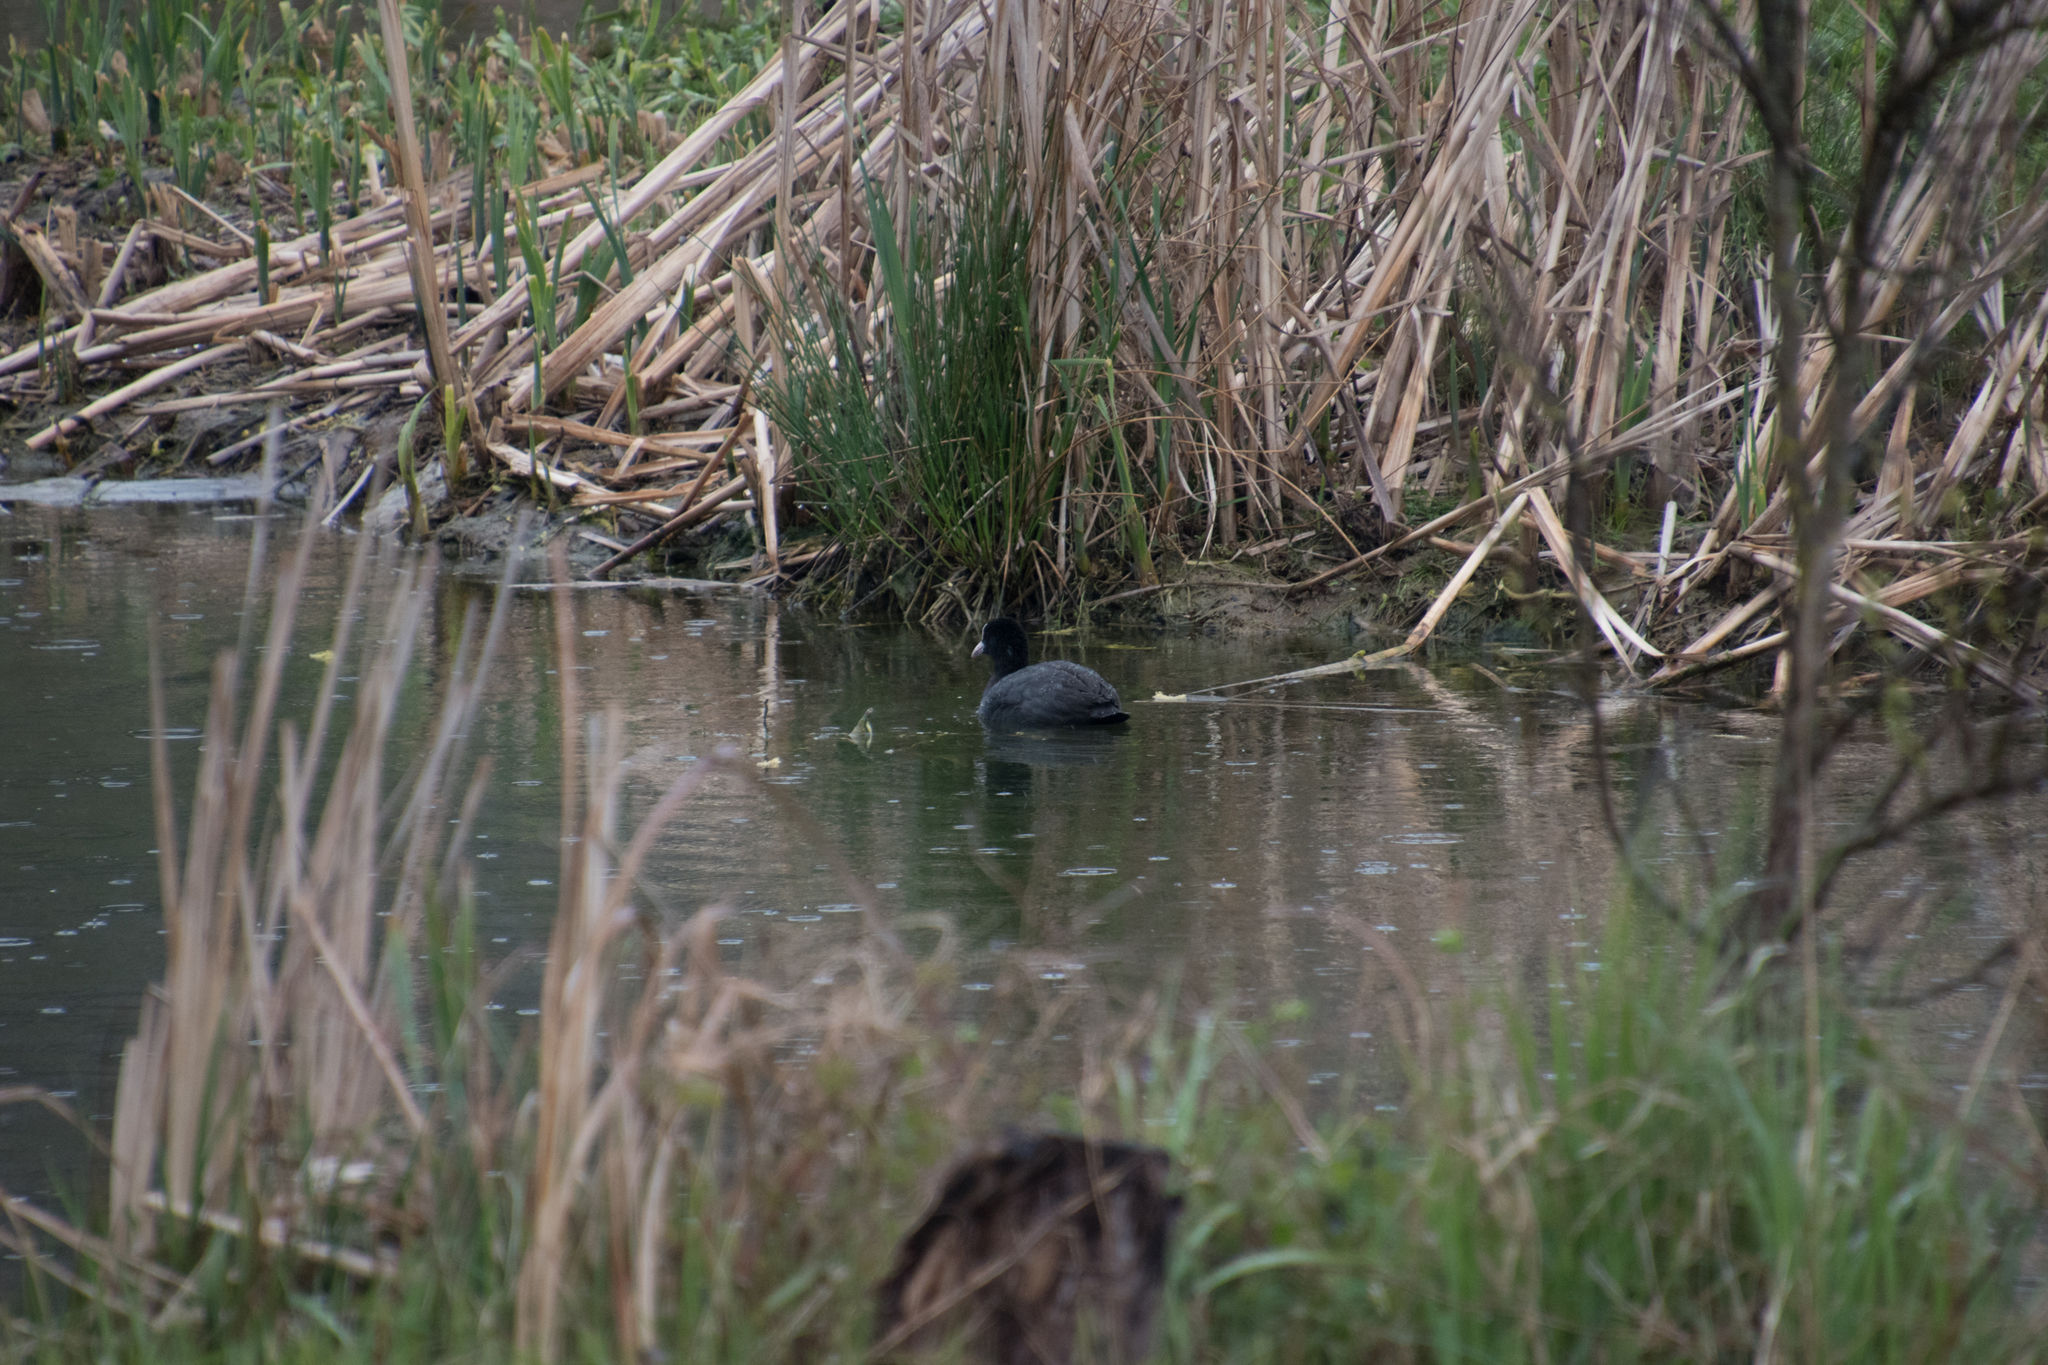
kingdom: Animalia
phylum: Chordata
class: Aves
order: Gruiformes
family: Rallidae
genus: Fulica
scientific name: Fulica atra
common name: Eurasian coot
